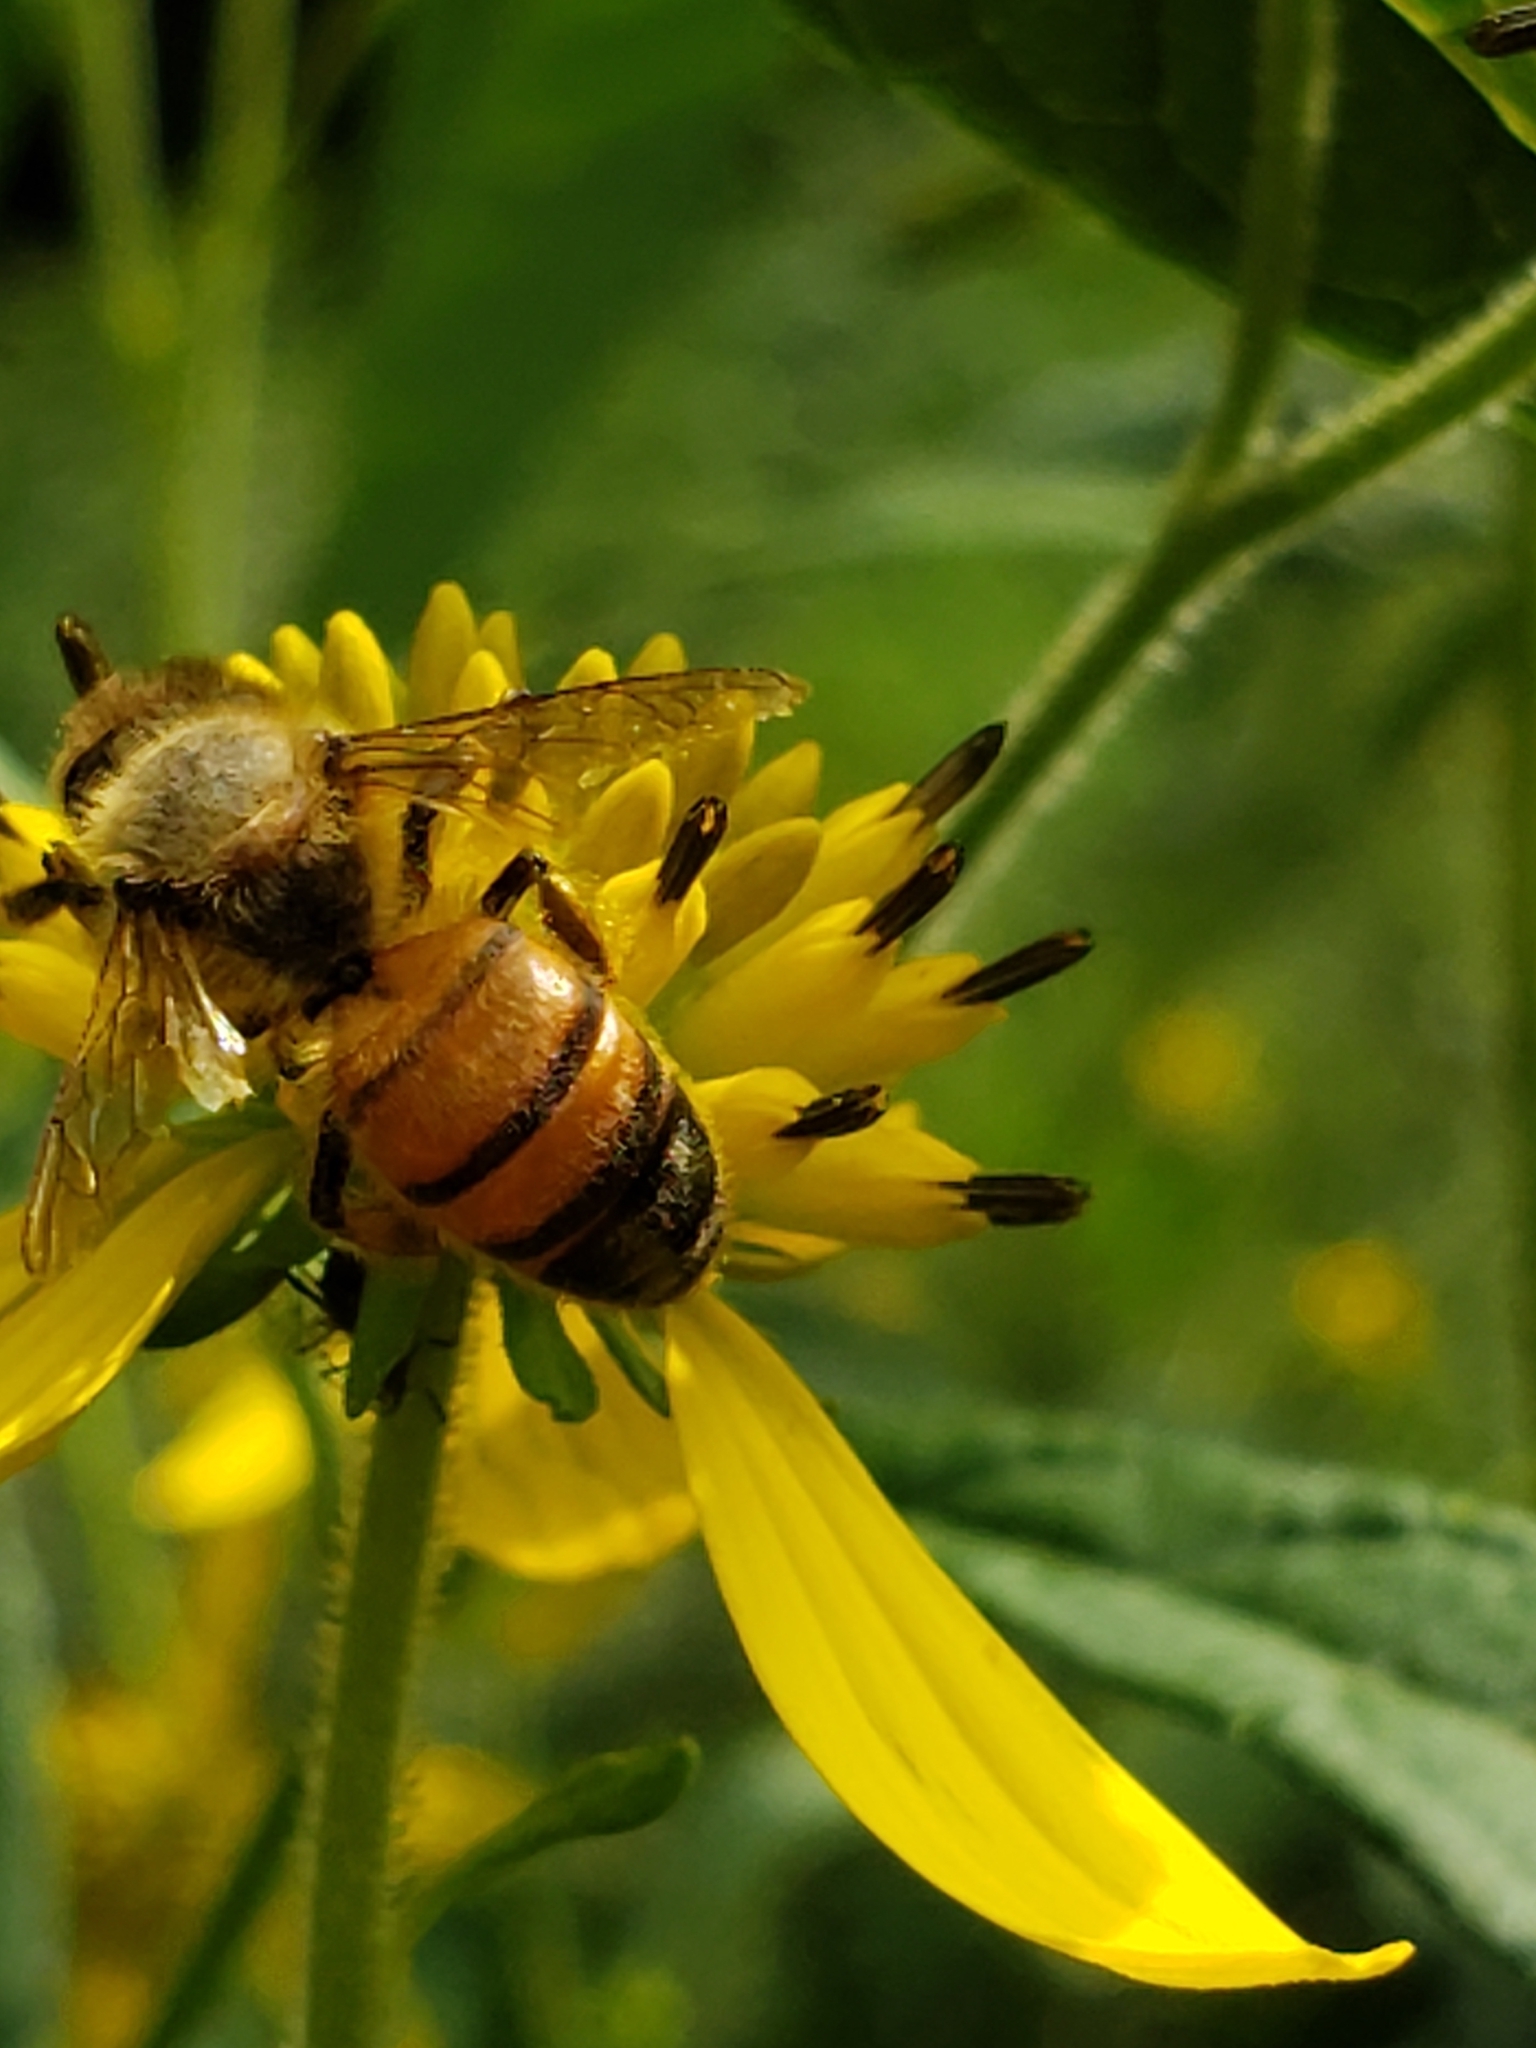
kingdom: Animalia
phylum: Arthropoda
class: Insecta
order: Hymenoptera
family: Apidae
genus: Apis
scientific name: Apis mellifera
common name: Honey bee
